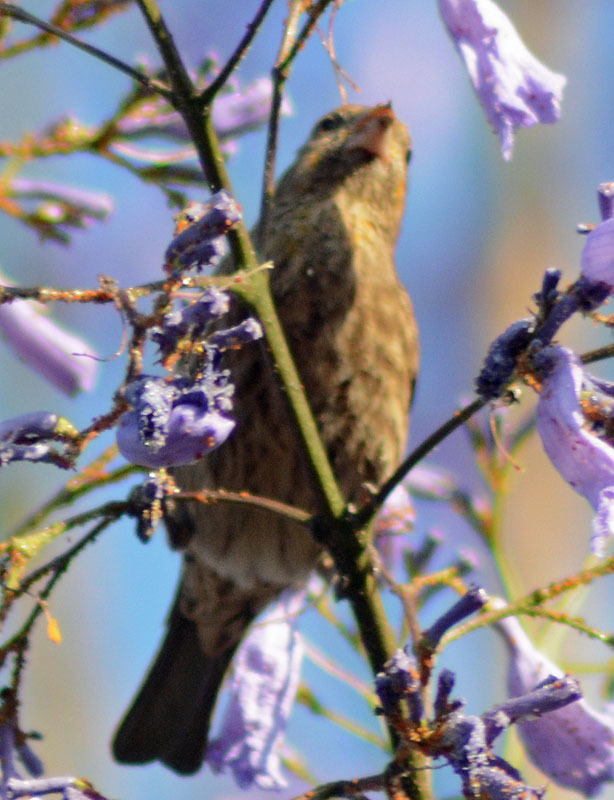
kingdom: Animalia
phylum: Chordata
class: Aves
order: Passeriformes
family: Fringillidae
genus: Haemorhous
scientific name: Haemorhous mexicanus
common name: House finch
